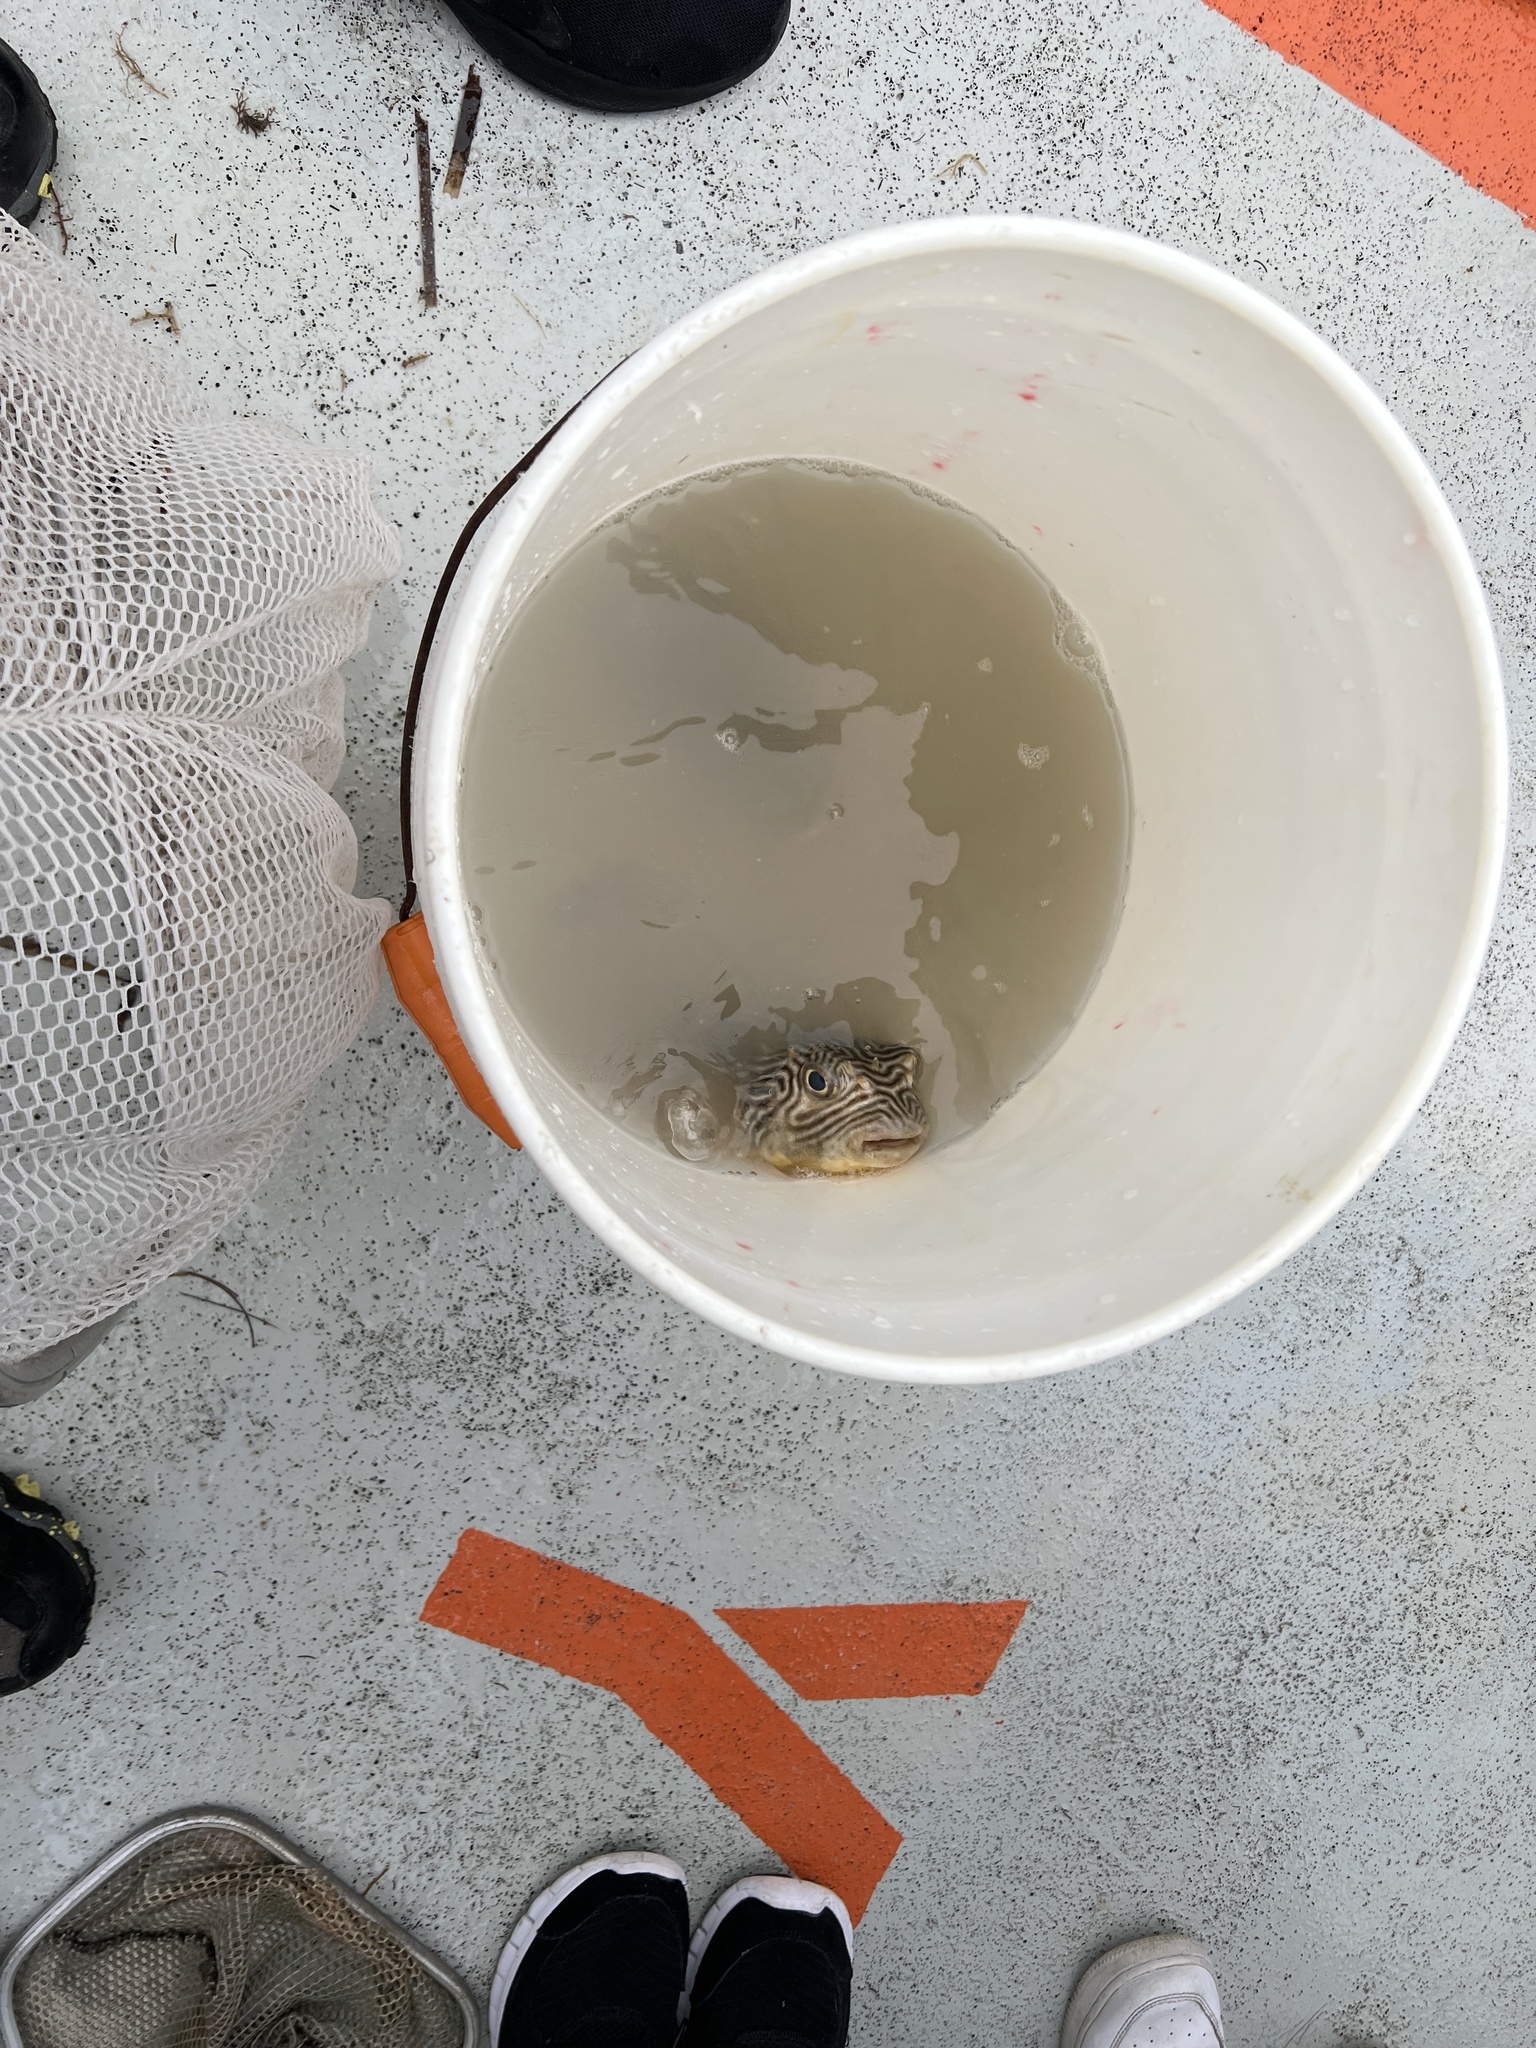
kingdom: Animalia
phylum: Chordata
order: Tetraodontiformes
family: Diodontidae
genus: Chilomycterus
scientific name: Chilomycterus schoepfii
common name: Striped burrfish
